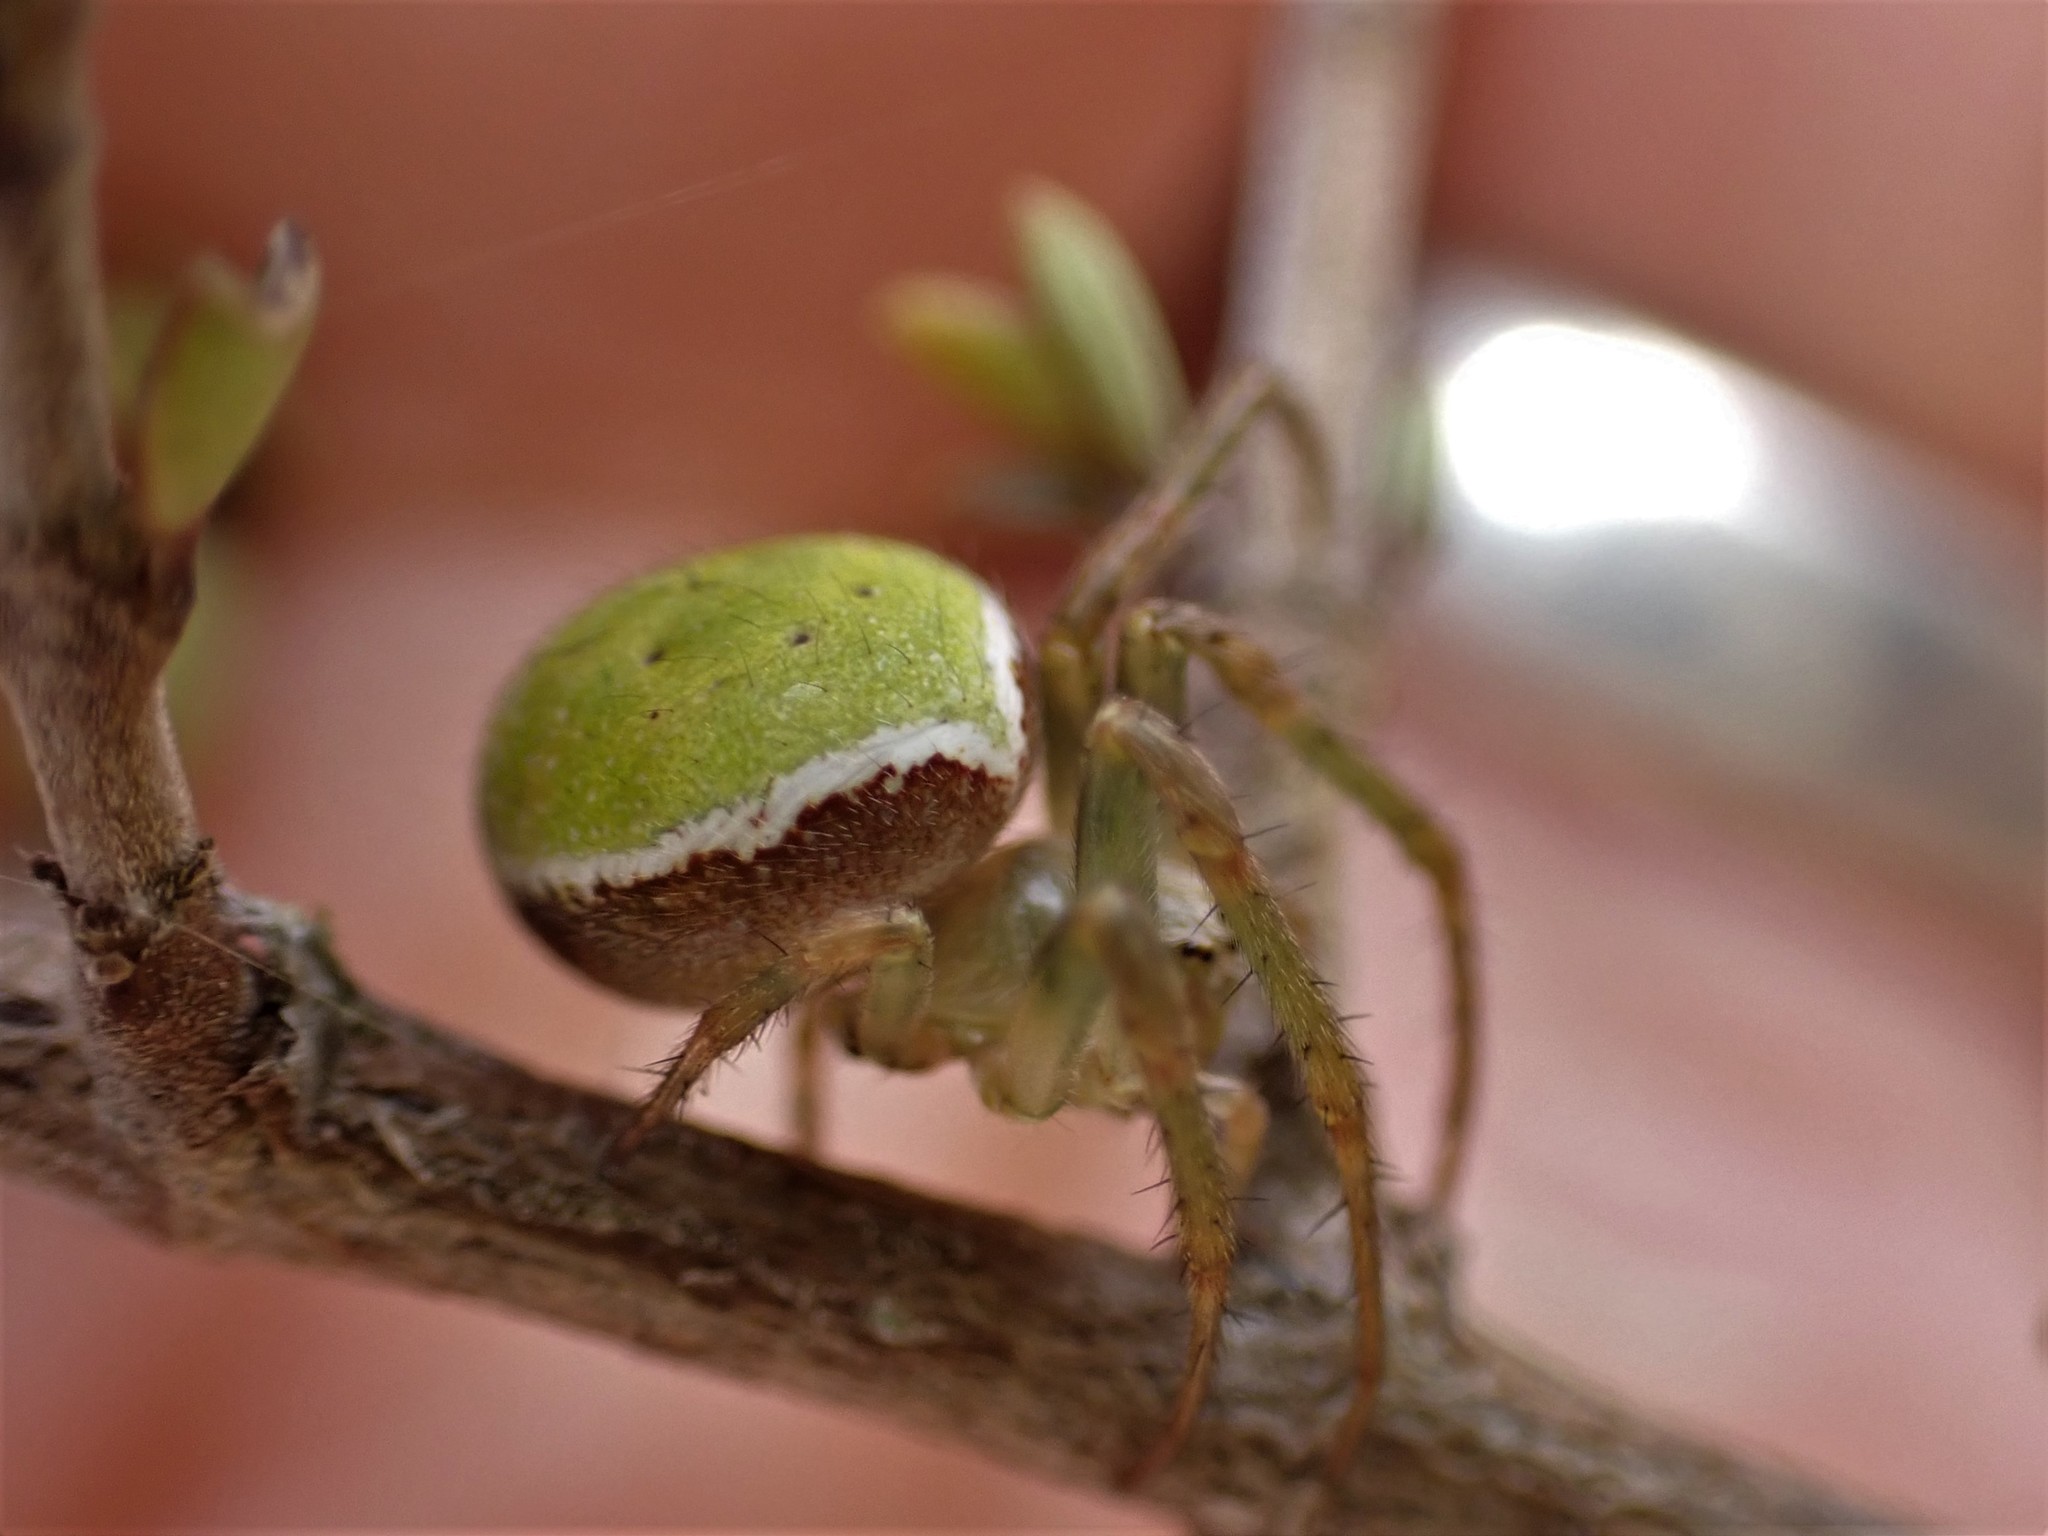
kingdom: Animalia
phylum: Arthropoda
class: Arachnida
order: Araneae
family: Araneidae
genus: Colaranea
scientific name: Colaranea viriditas
